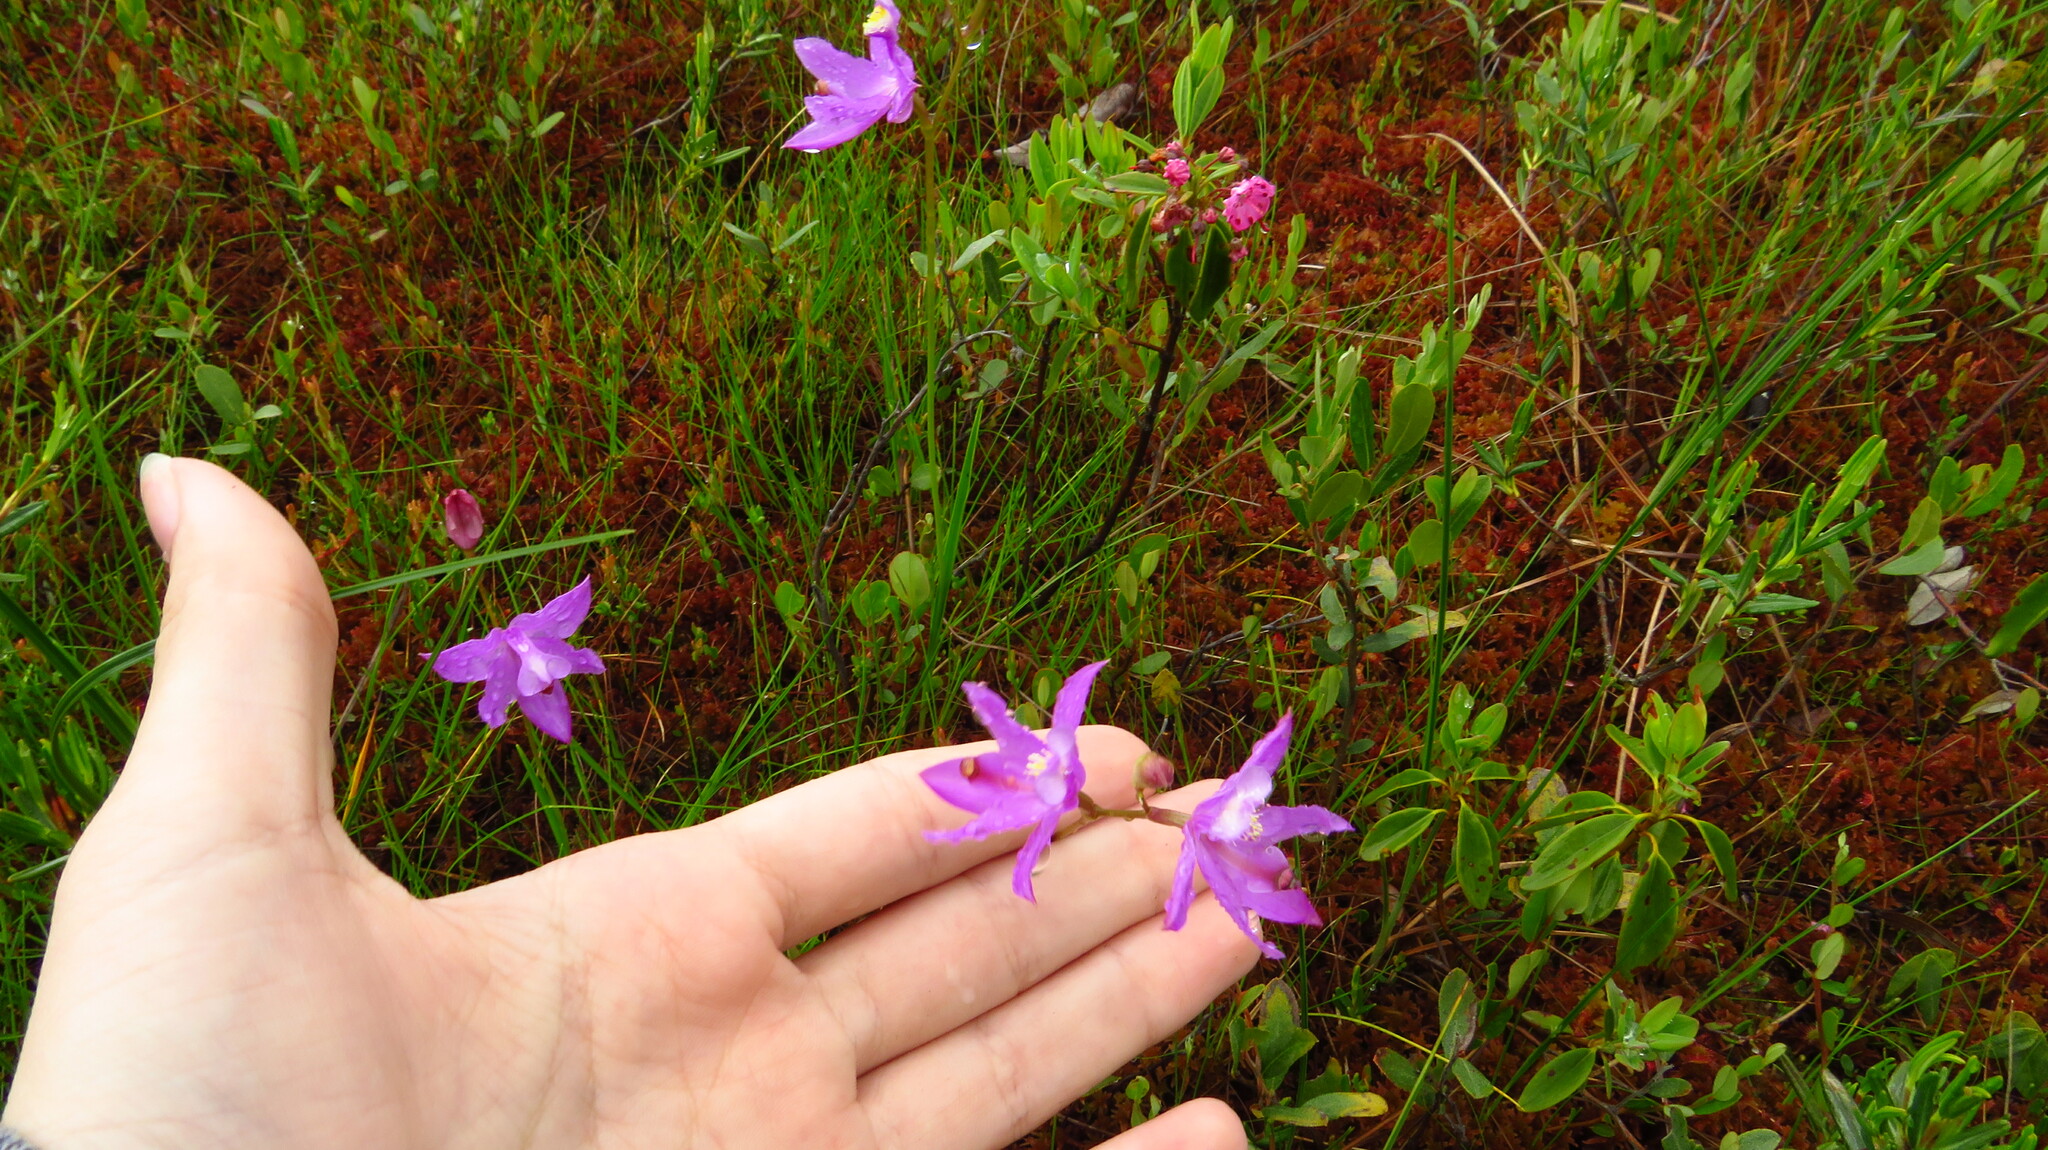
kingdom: Plantae
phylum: Tracheophyta
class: Liliopsida
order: Asparagales
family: Orchidaceae
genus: Calopogon
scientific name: Calopogon tuberosus
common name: Grass-pink
